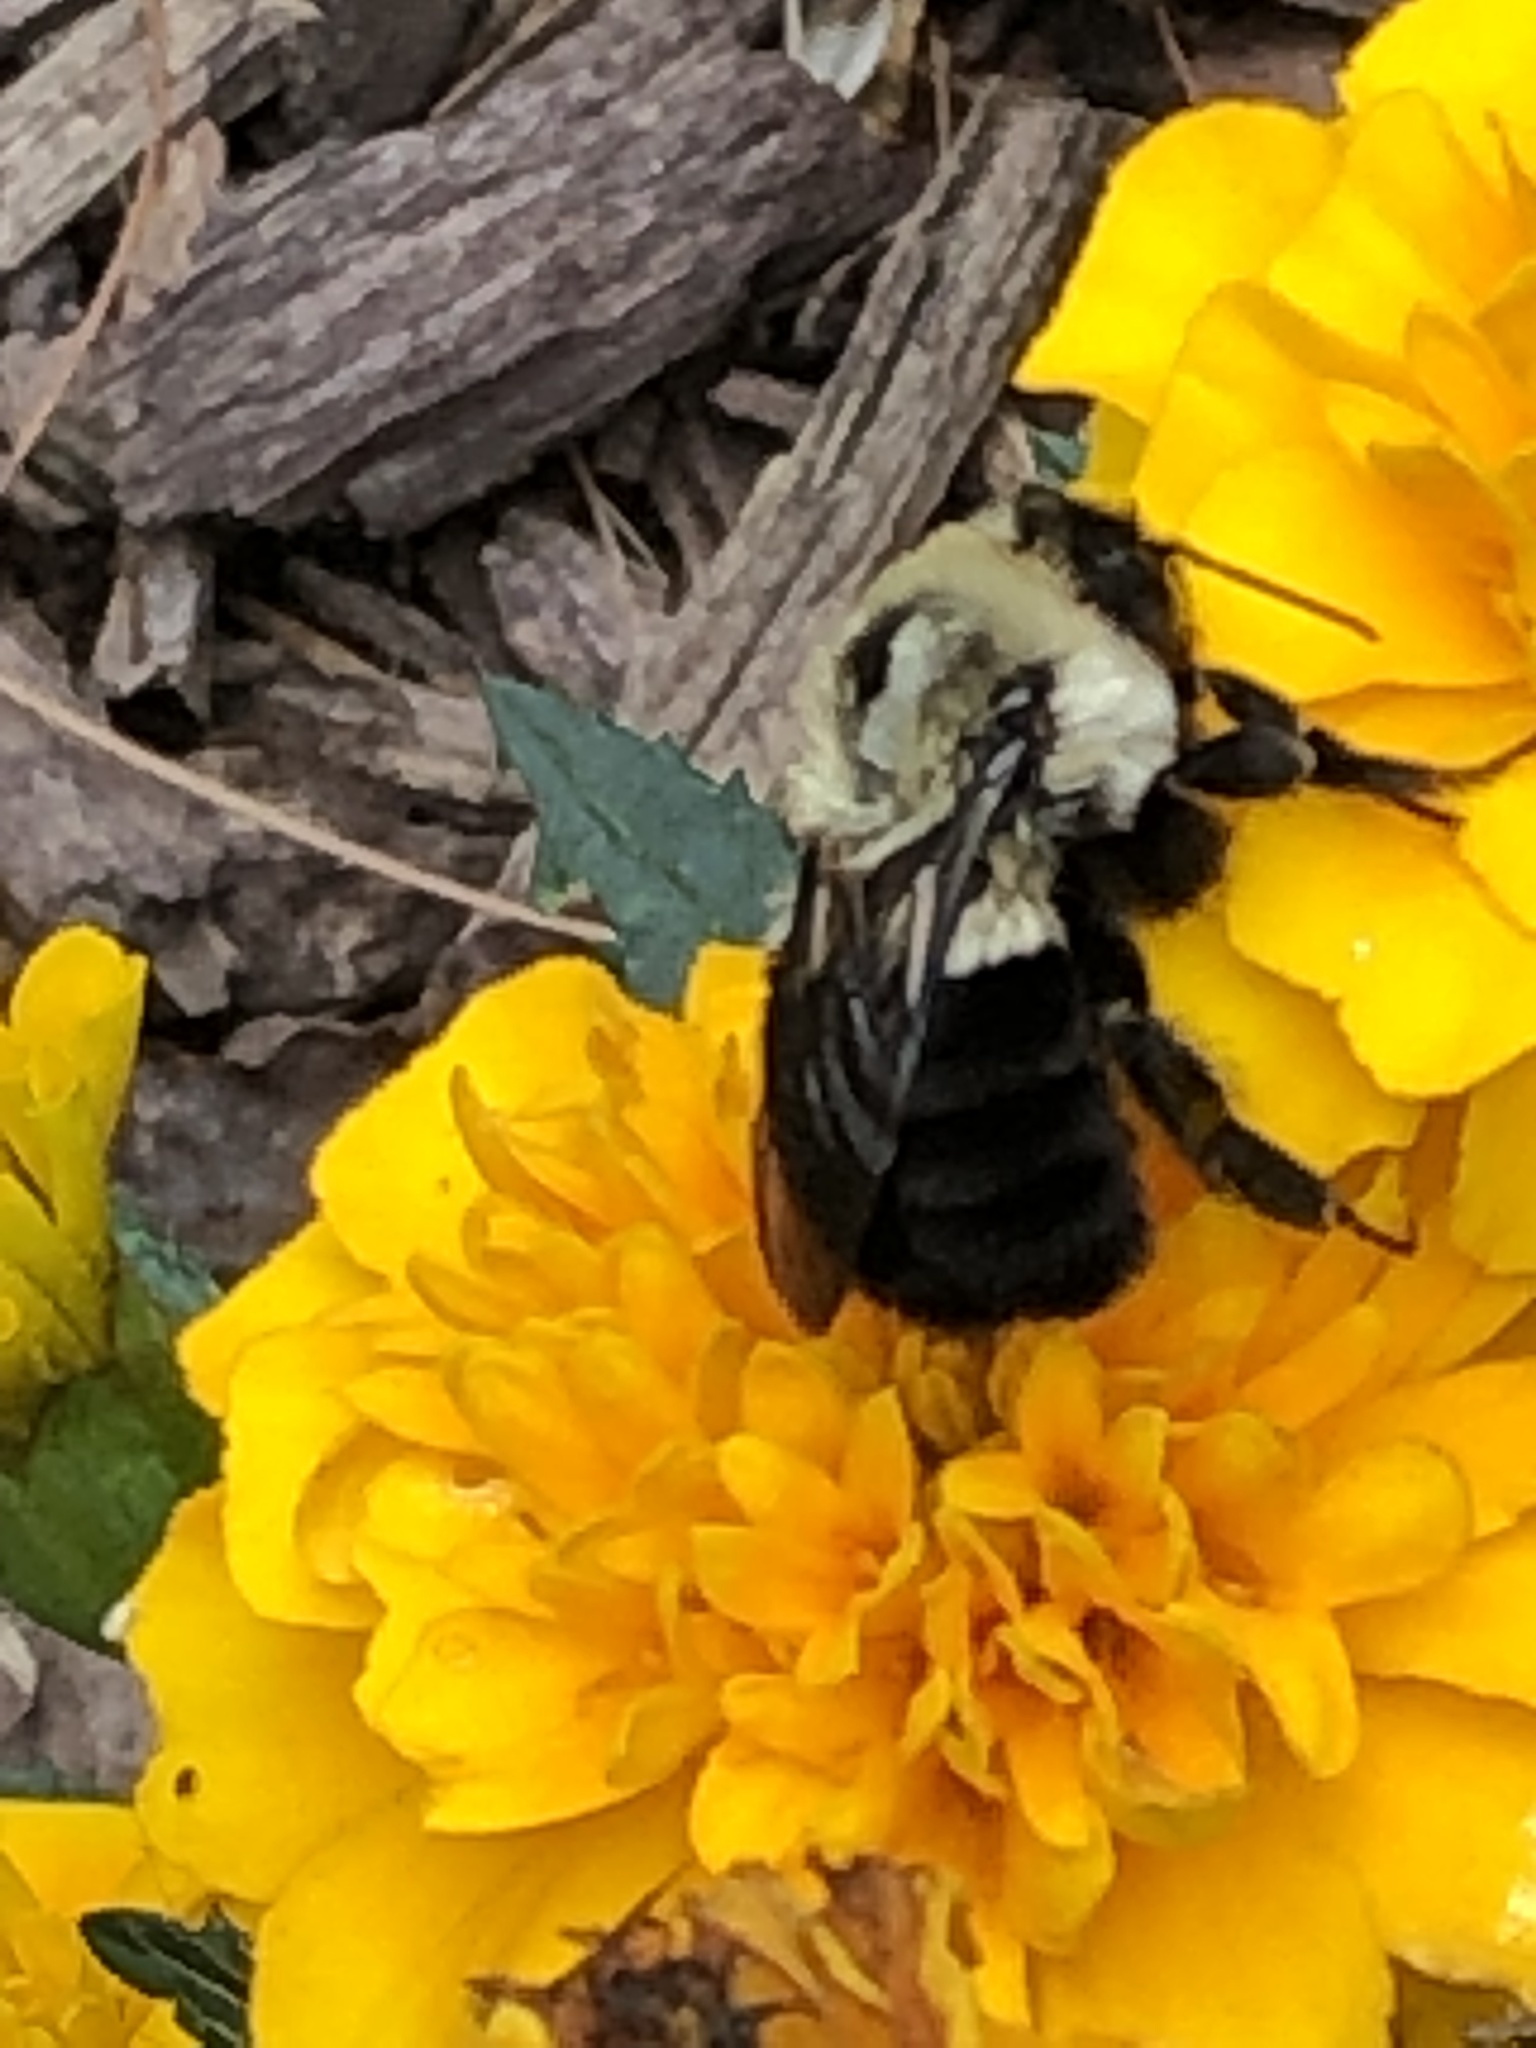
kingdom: Animalia
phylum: Arthropoda
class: Insecta
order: Hymenoptera
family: Apidae
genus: Bombus
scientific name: Bombus impatiens
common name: Common eastern bumble bee
